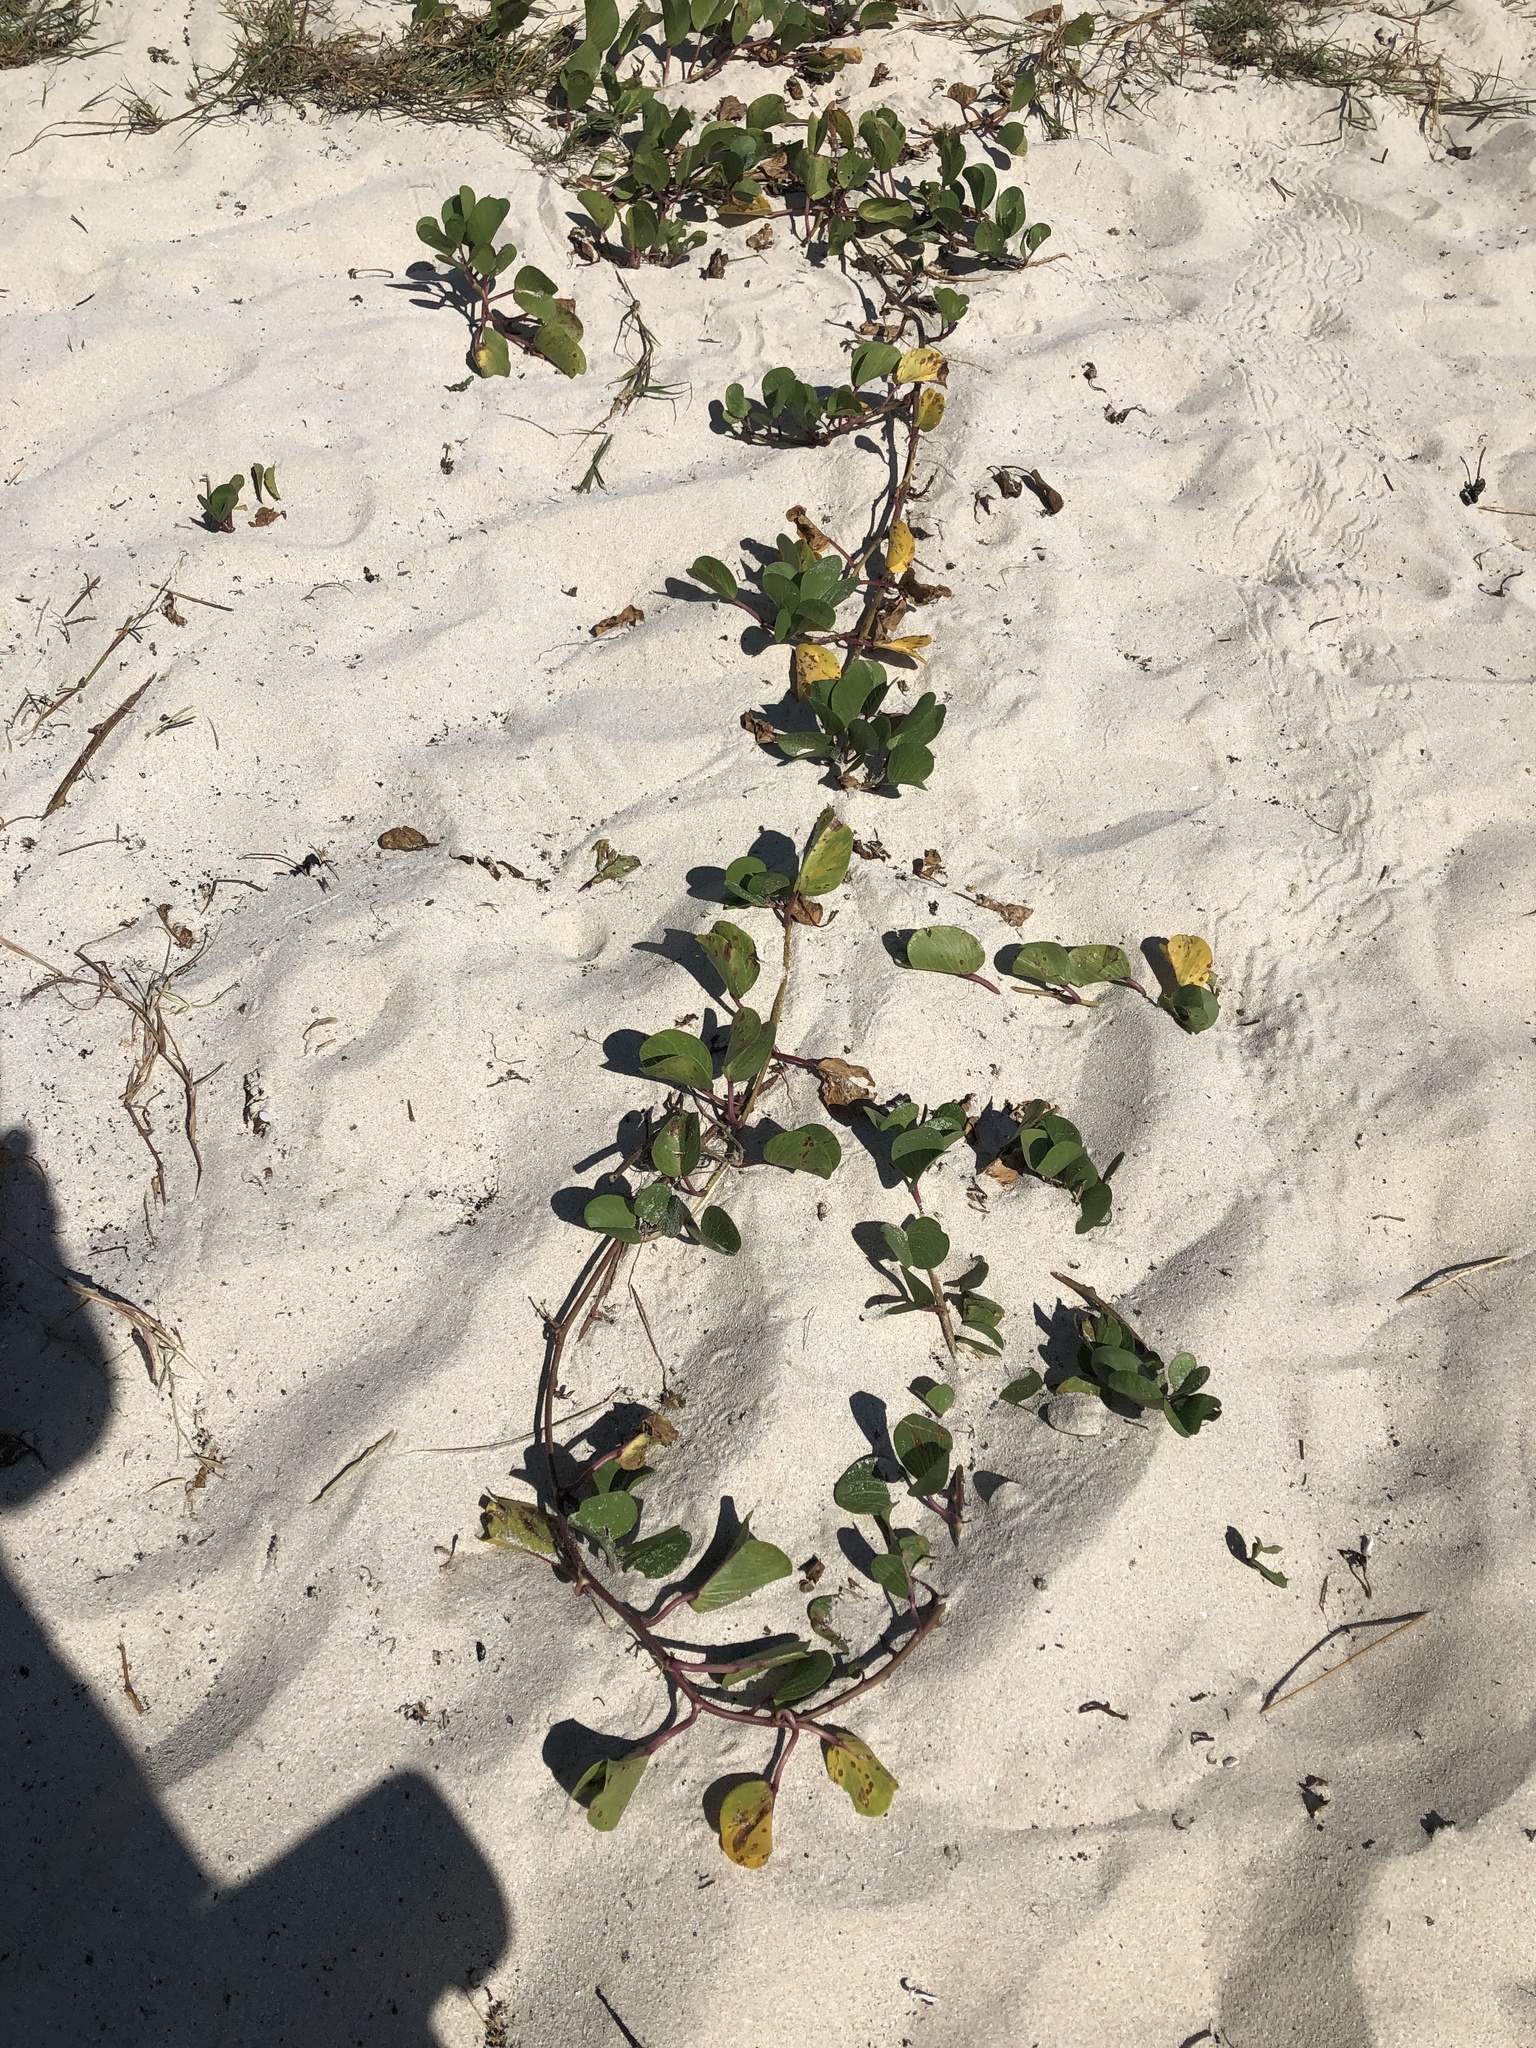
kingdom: Plantae
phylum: Tracheophyta
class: Magnoliopsida
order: Solanales
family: Convolvulaceae
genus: Ipomoea
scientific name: Ipomoea pes-caprae
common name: Beach morning glory
